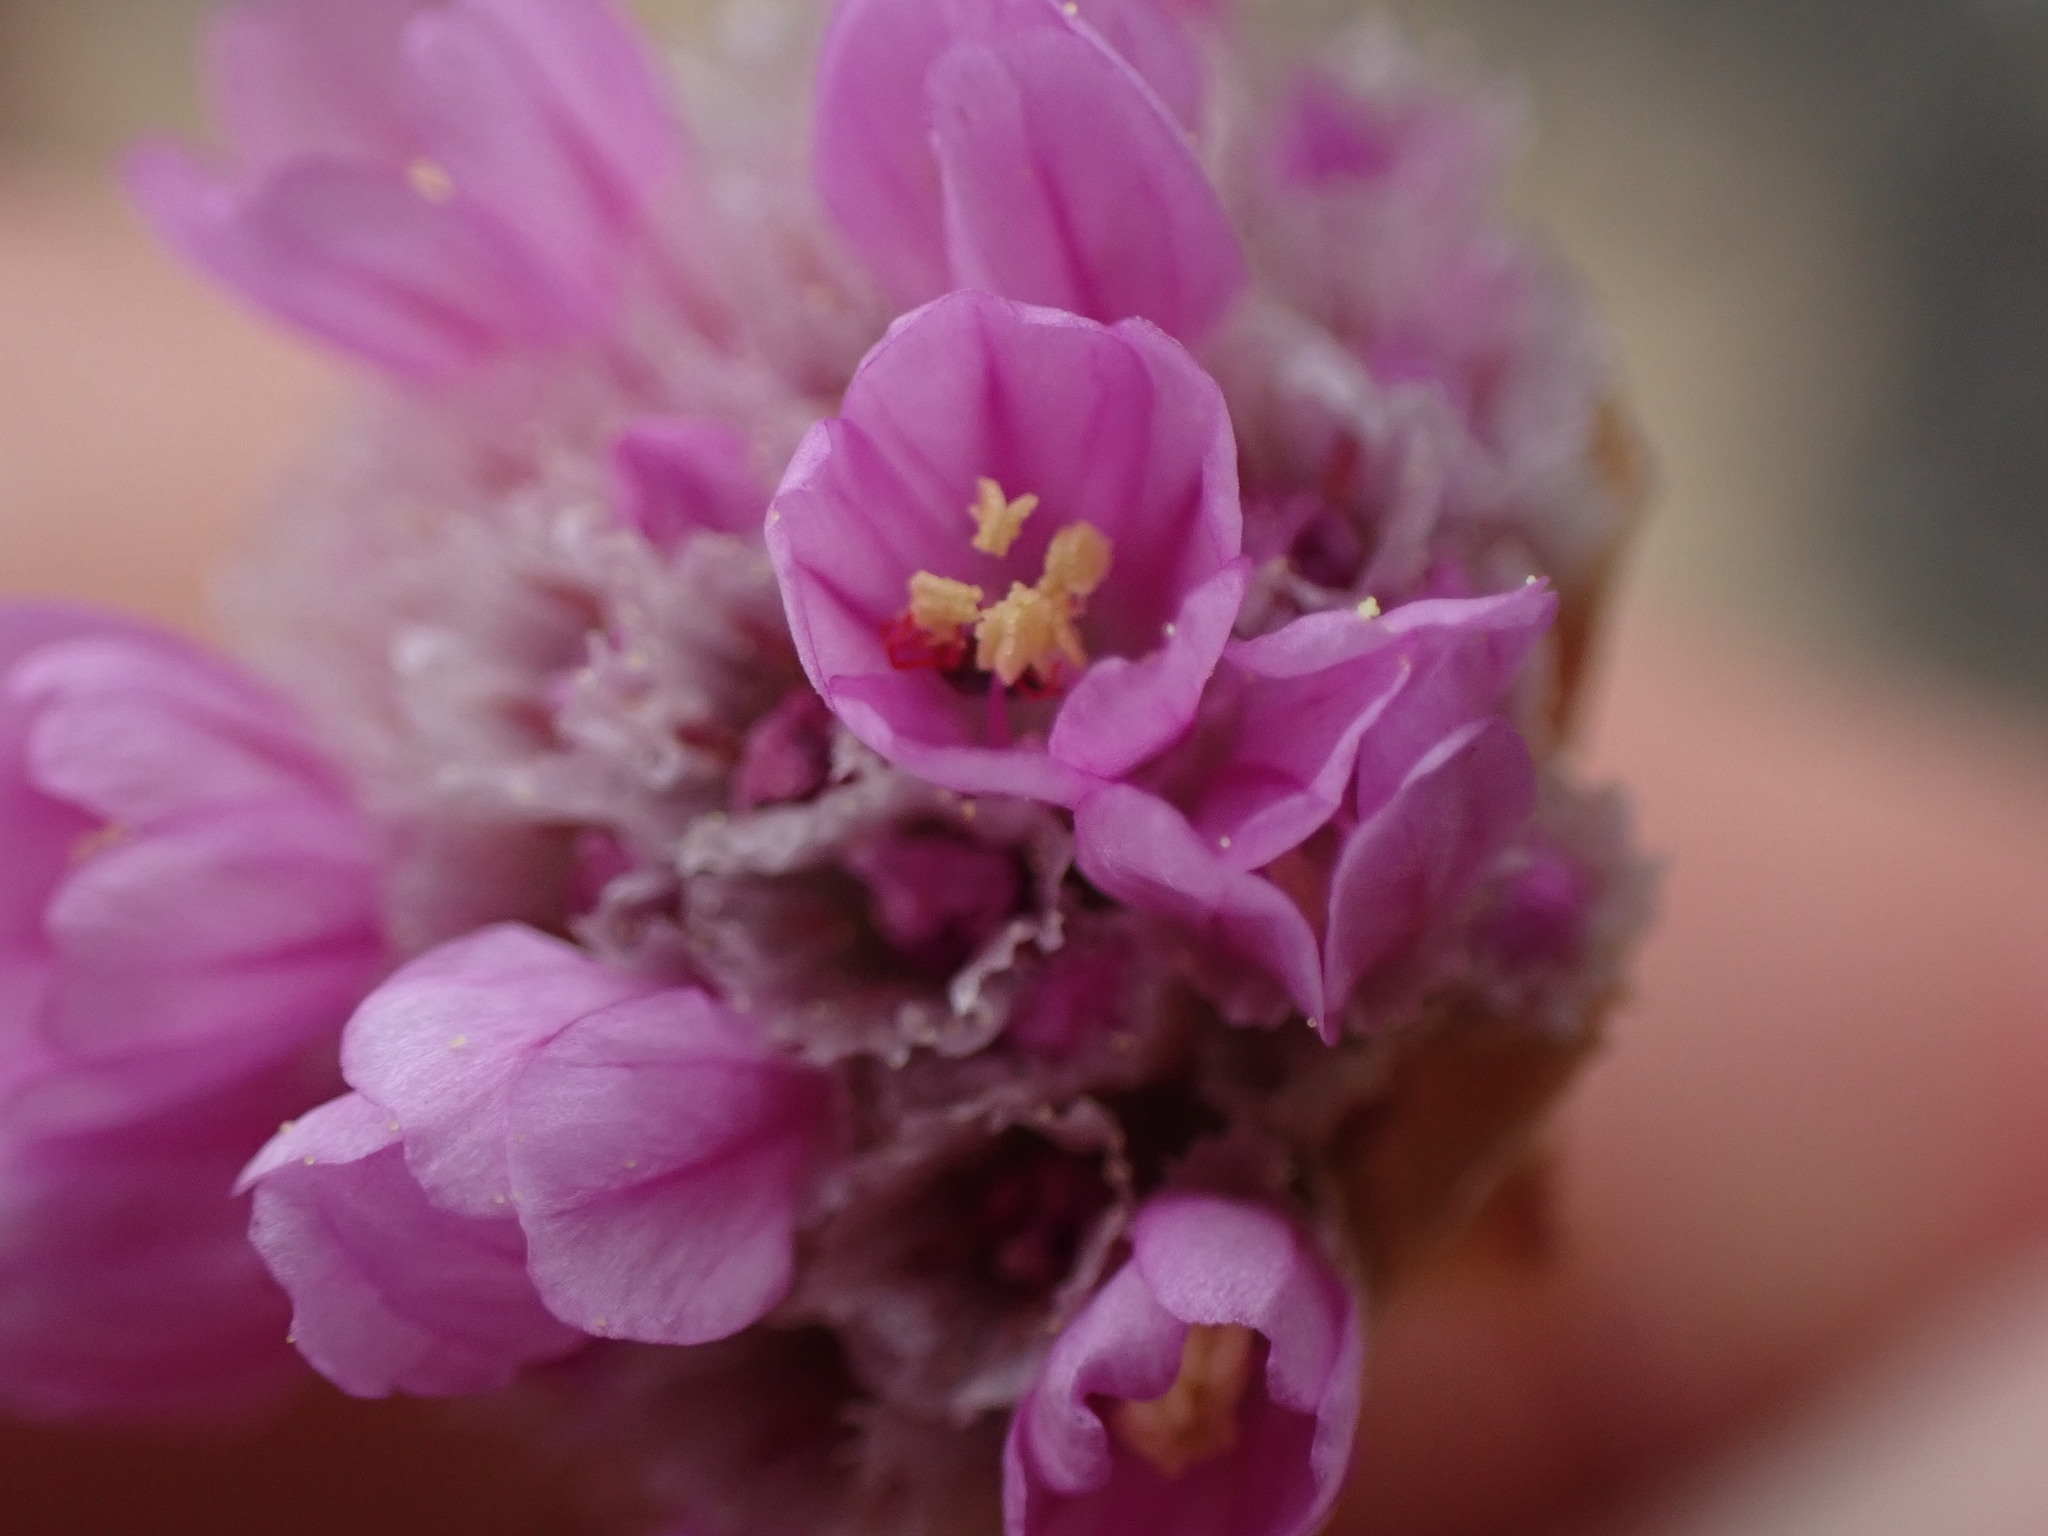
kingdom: Plantae
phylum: Tracheophyta
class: Magnoliopsida
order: Caryophyllales
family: Plumbaginaceae
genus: Armeria
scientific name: Armeria maritima
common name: Thrift
